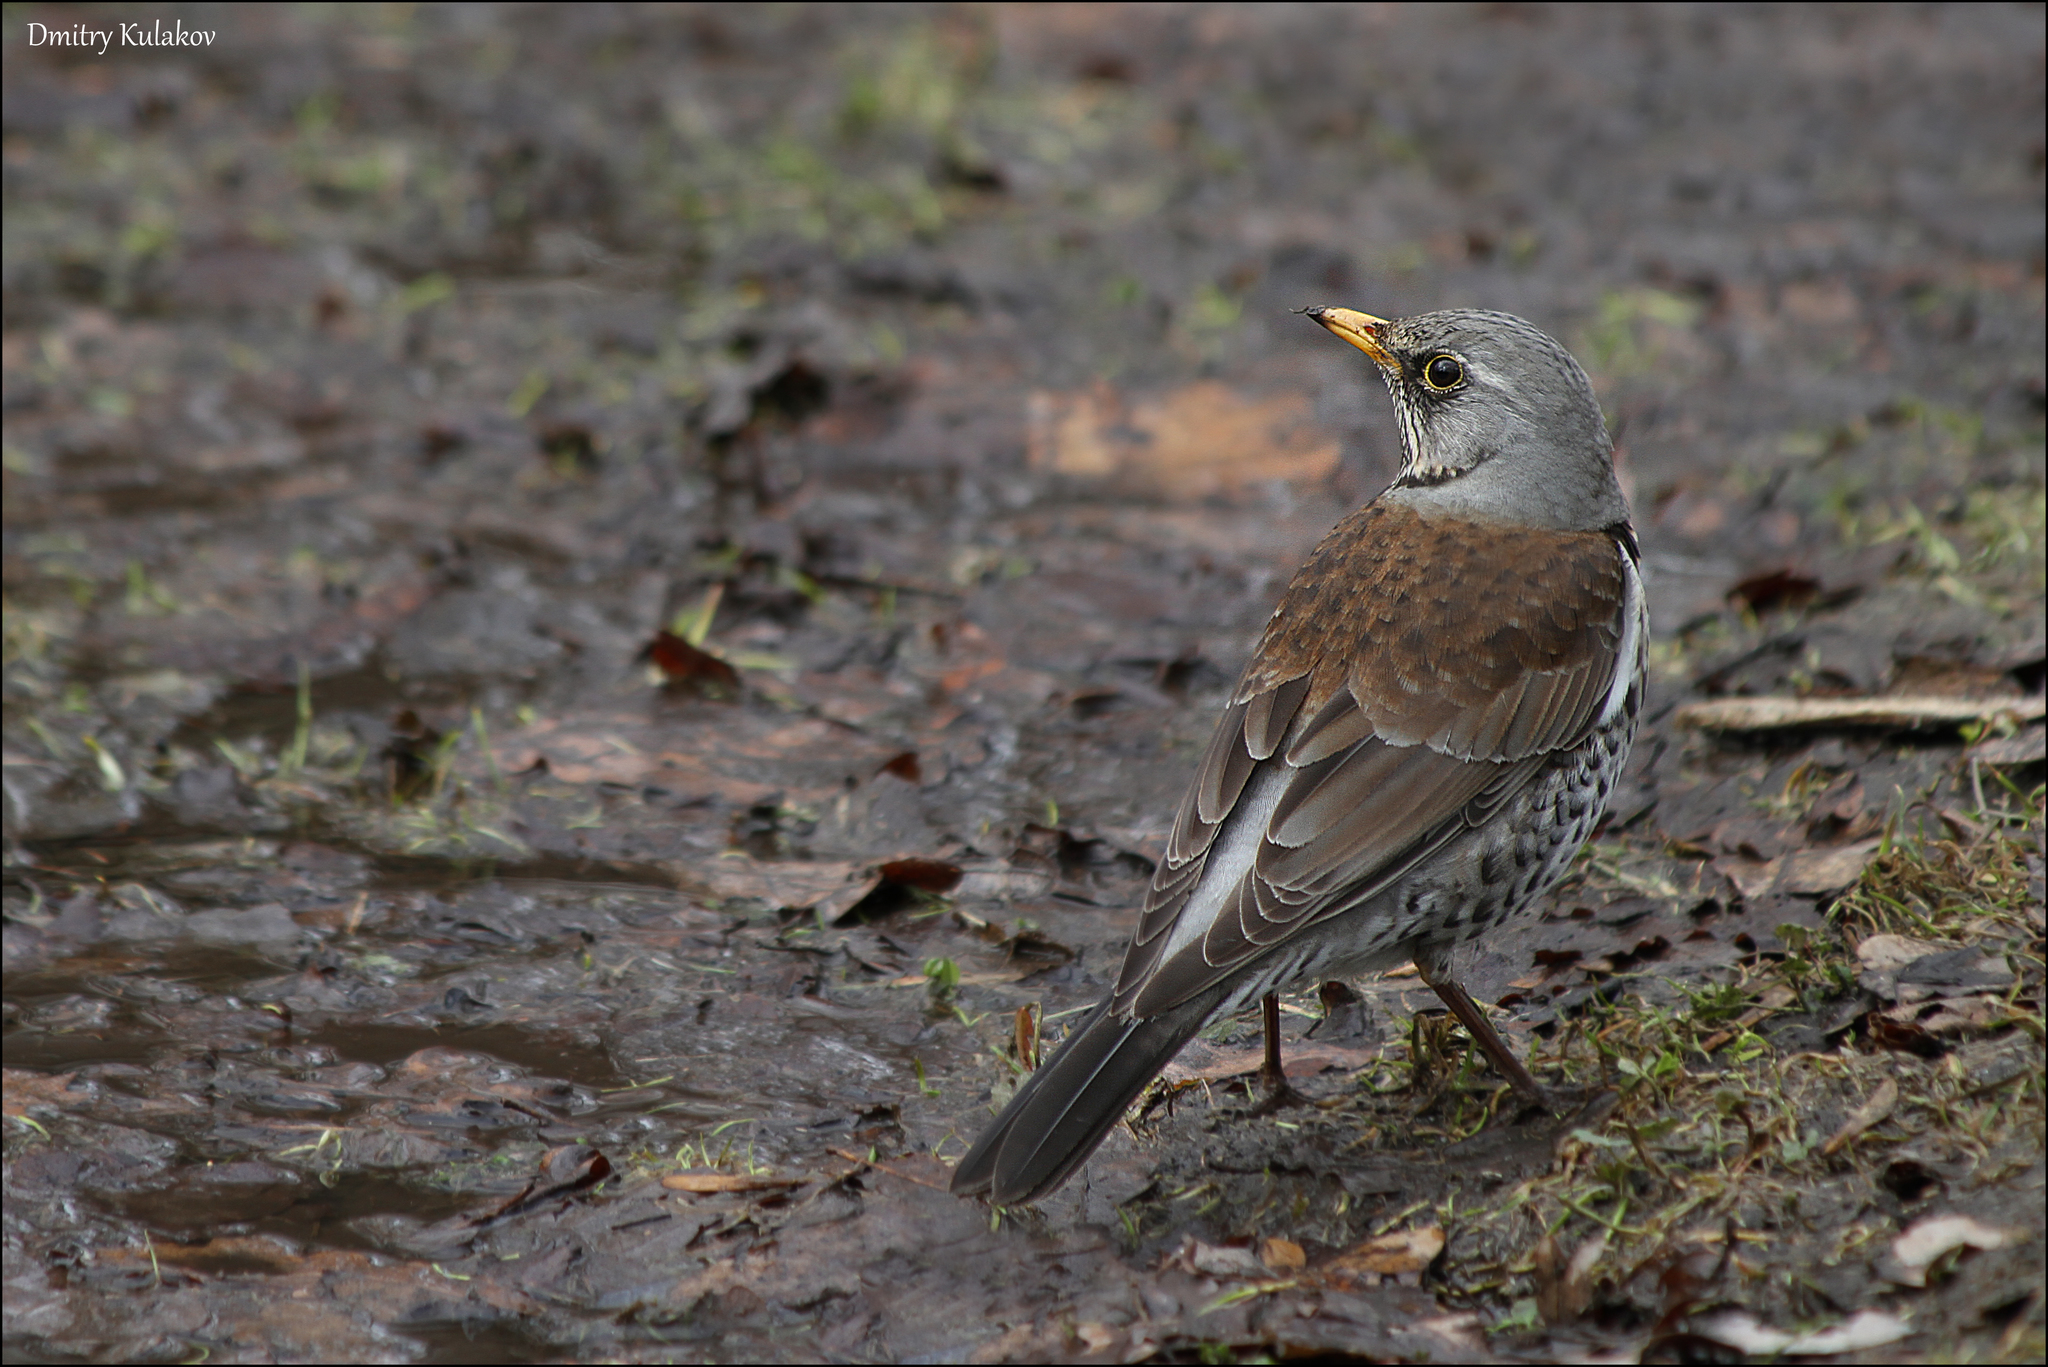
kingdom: Animalia
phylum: Chordata
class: Aves
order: Passeriformes
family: Turdidae
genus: Turdus
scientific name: Turdus pilaris
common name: Fieldfare
